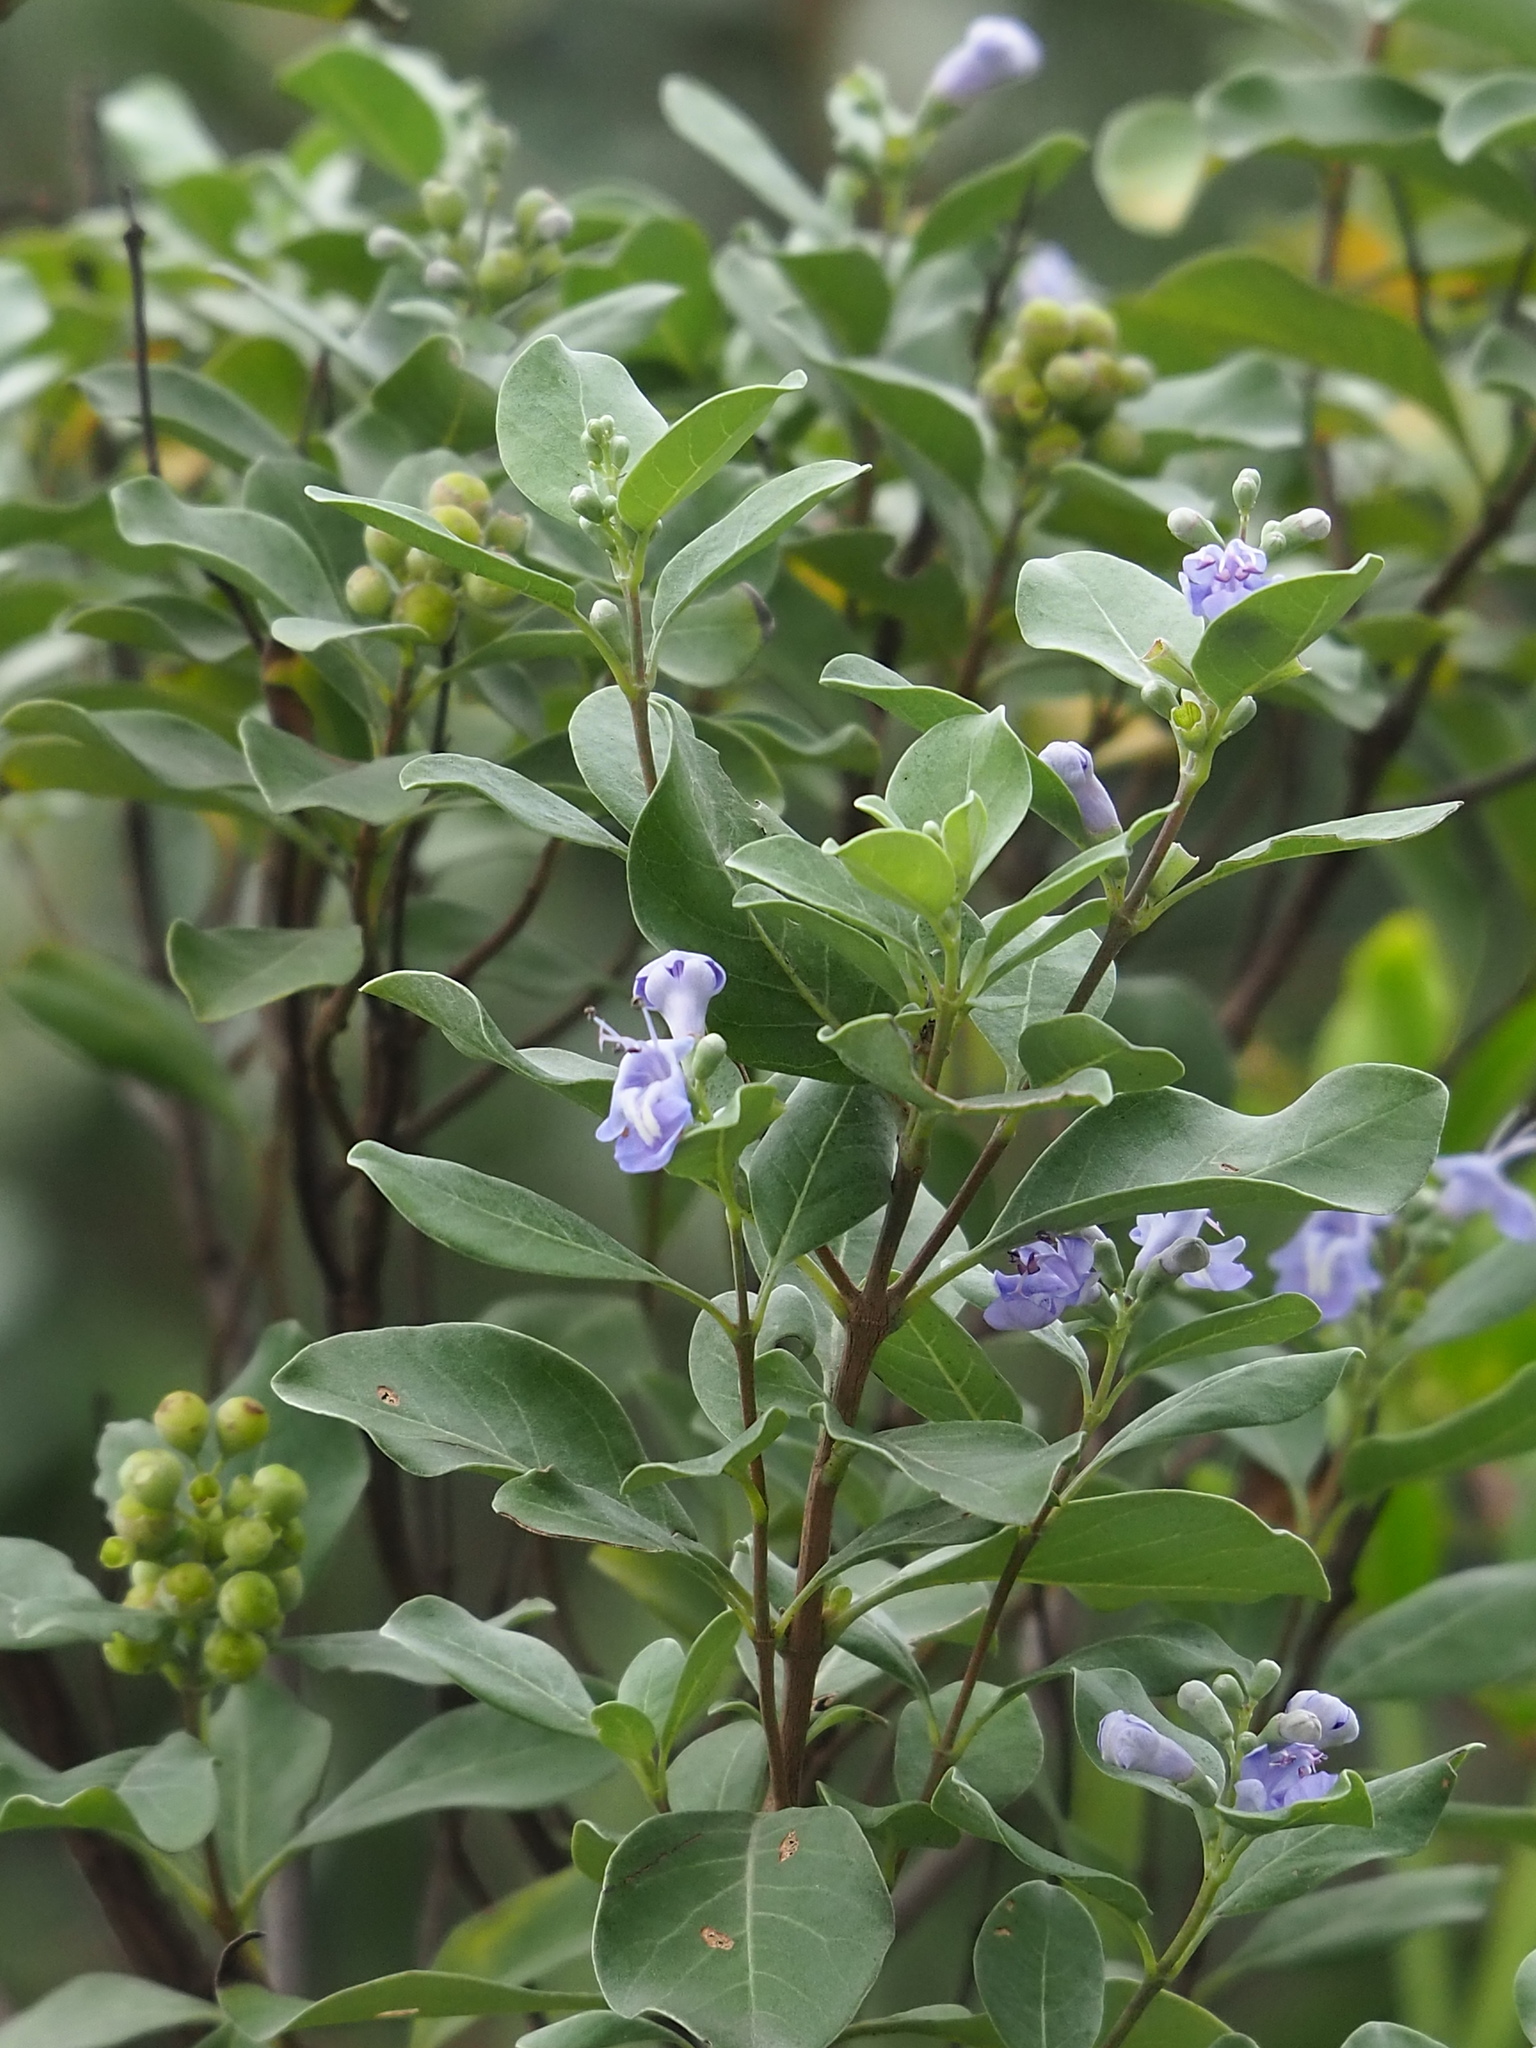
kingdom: Plantae
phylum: Tracheophyta
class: Magnoliopsida
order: Lamiales
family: Lamiaceae
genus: Vitex
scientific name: Vitex rotundifolia
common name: Beach vitex
